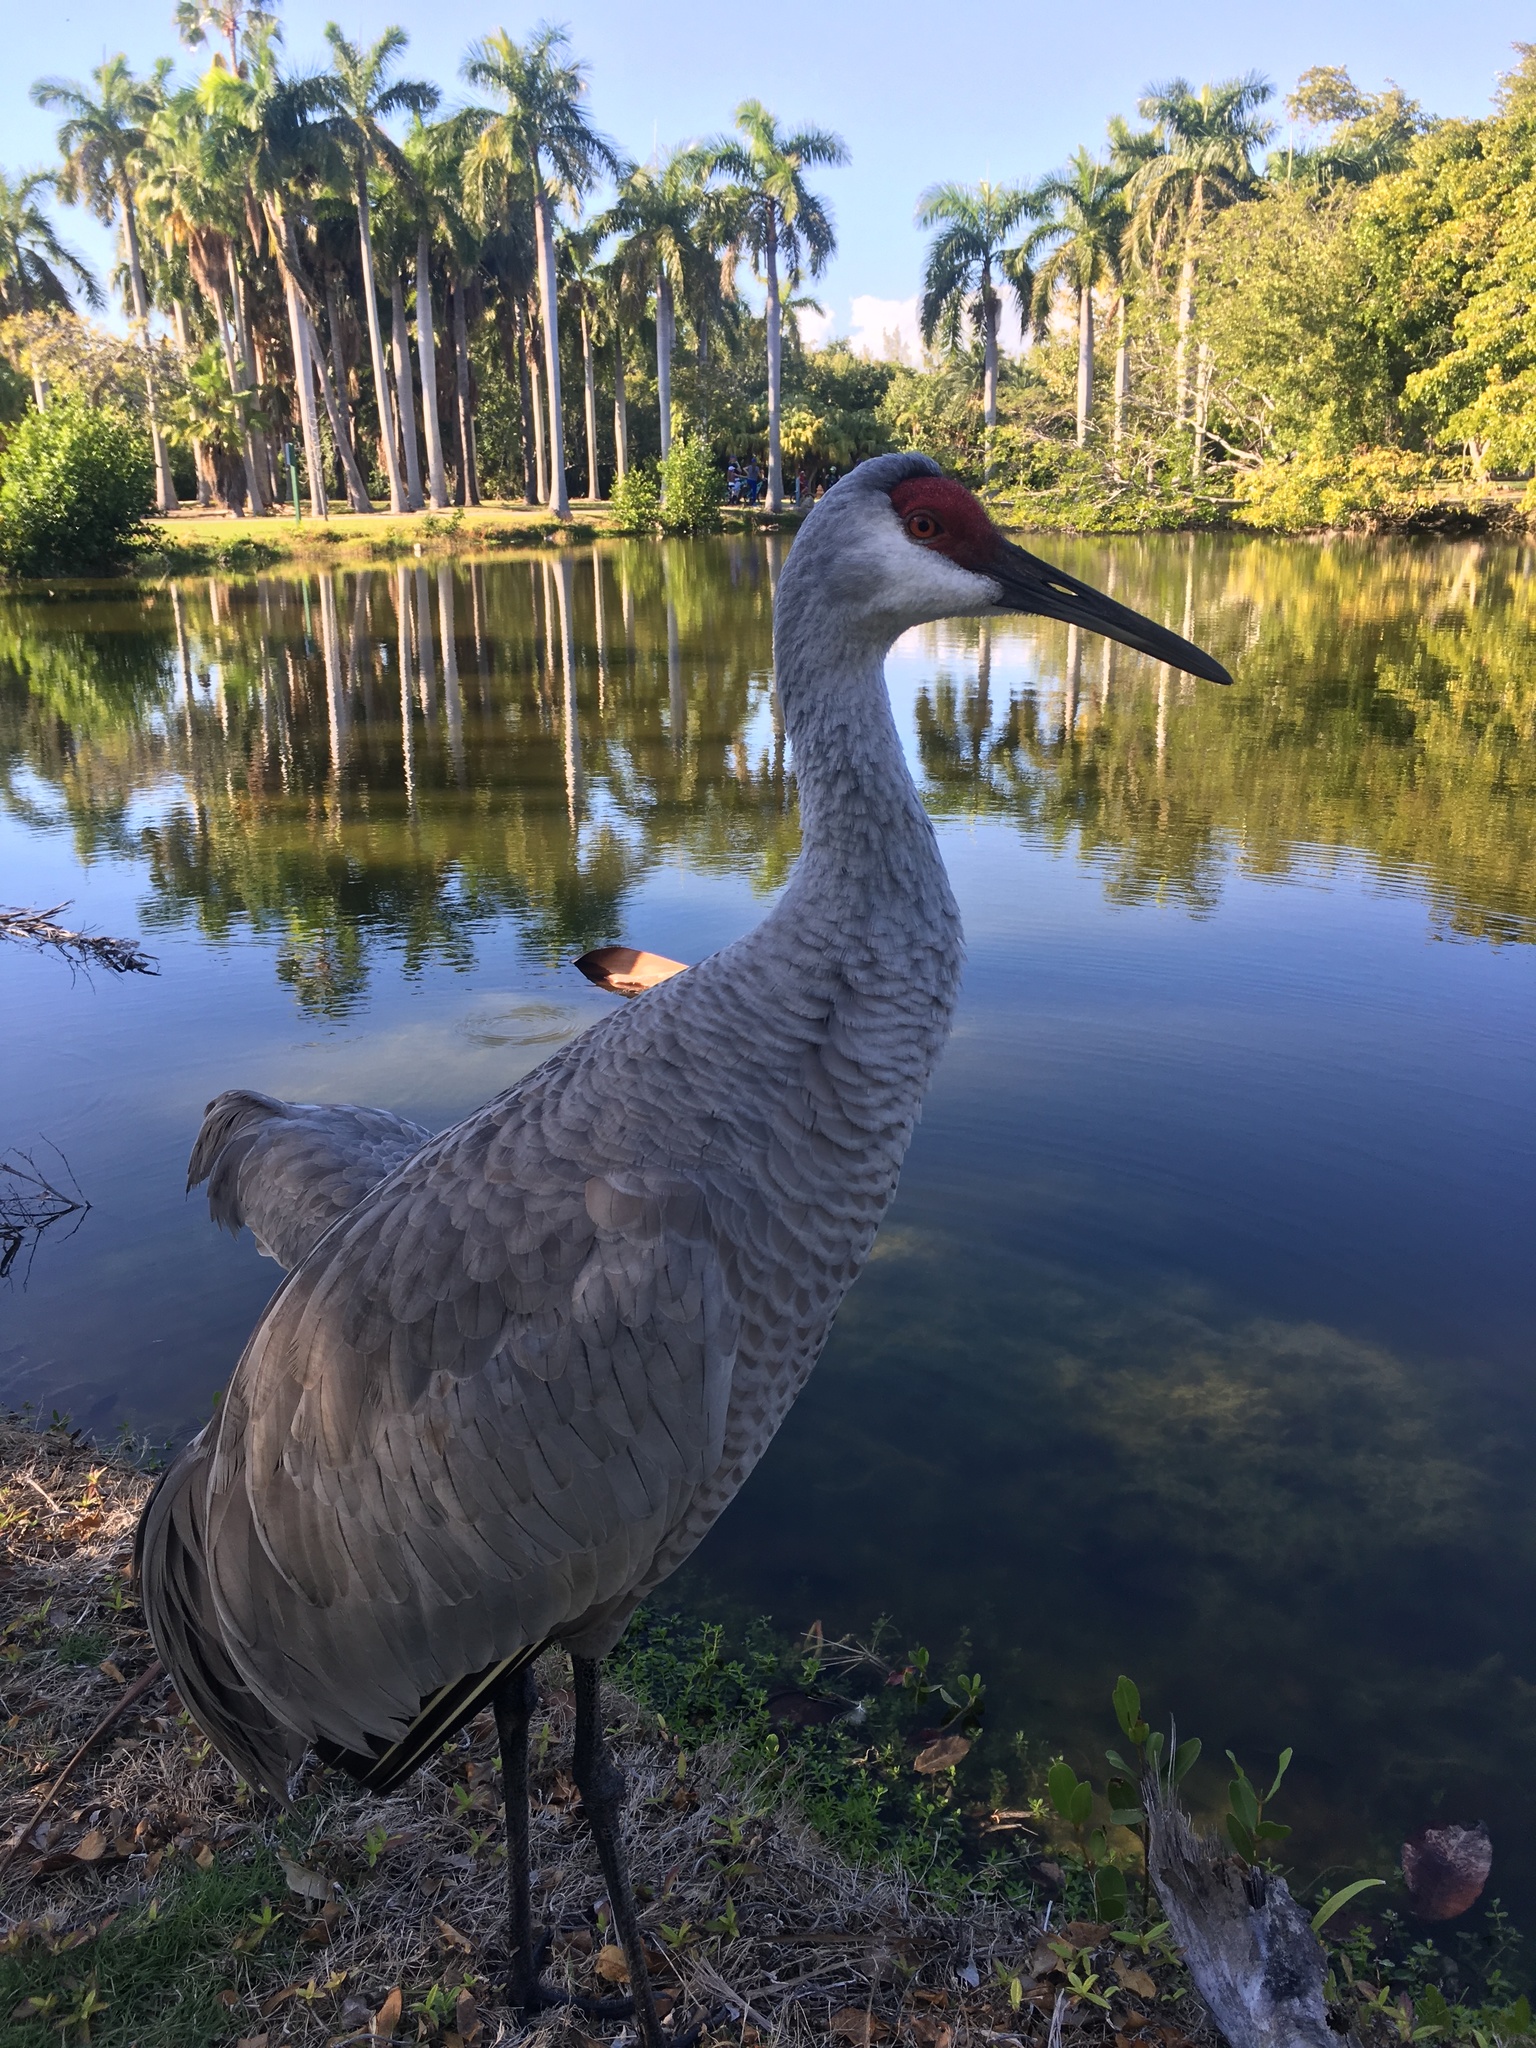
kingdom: Animalia
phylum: Chordata
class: Aves
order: Gruiformes
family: Gruidae
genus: Grus
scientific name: Grus canadensis
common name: Sandhill crane
